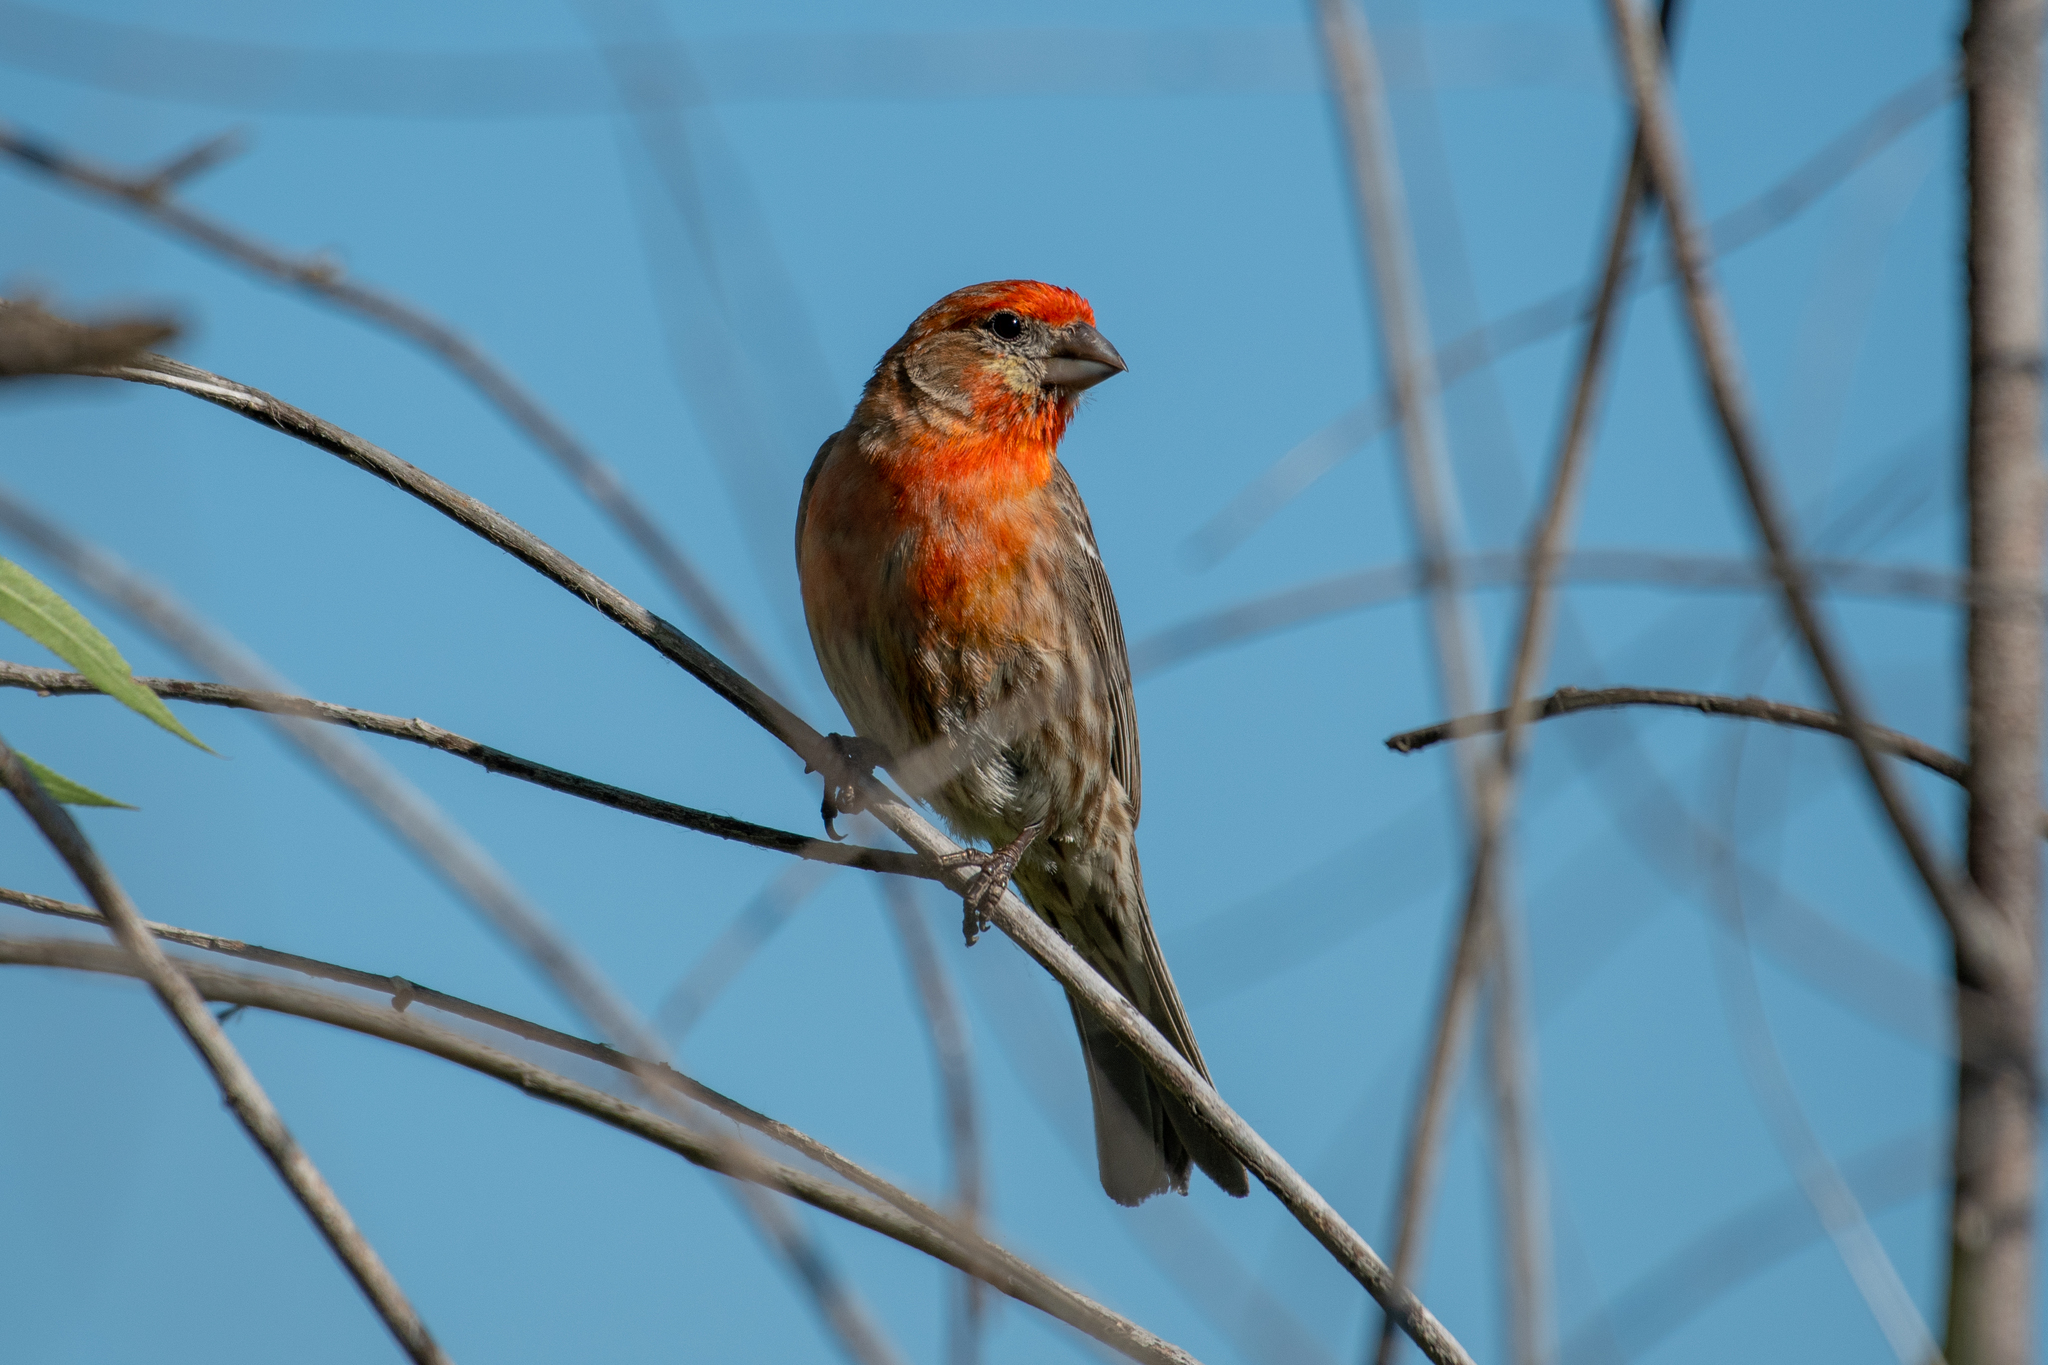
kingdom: Animalia
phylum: Chordata
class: Aves
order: Passeriformes
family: Fringillidae
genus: Haemorhous
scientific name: Haemorhous mexicanus
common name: House finch
